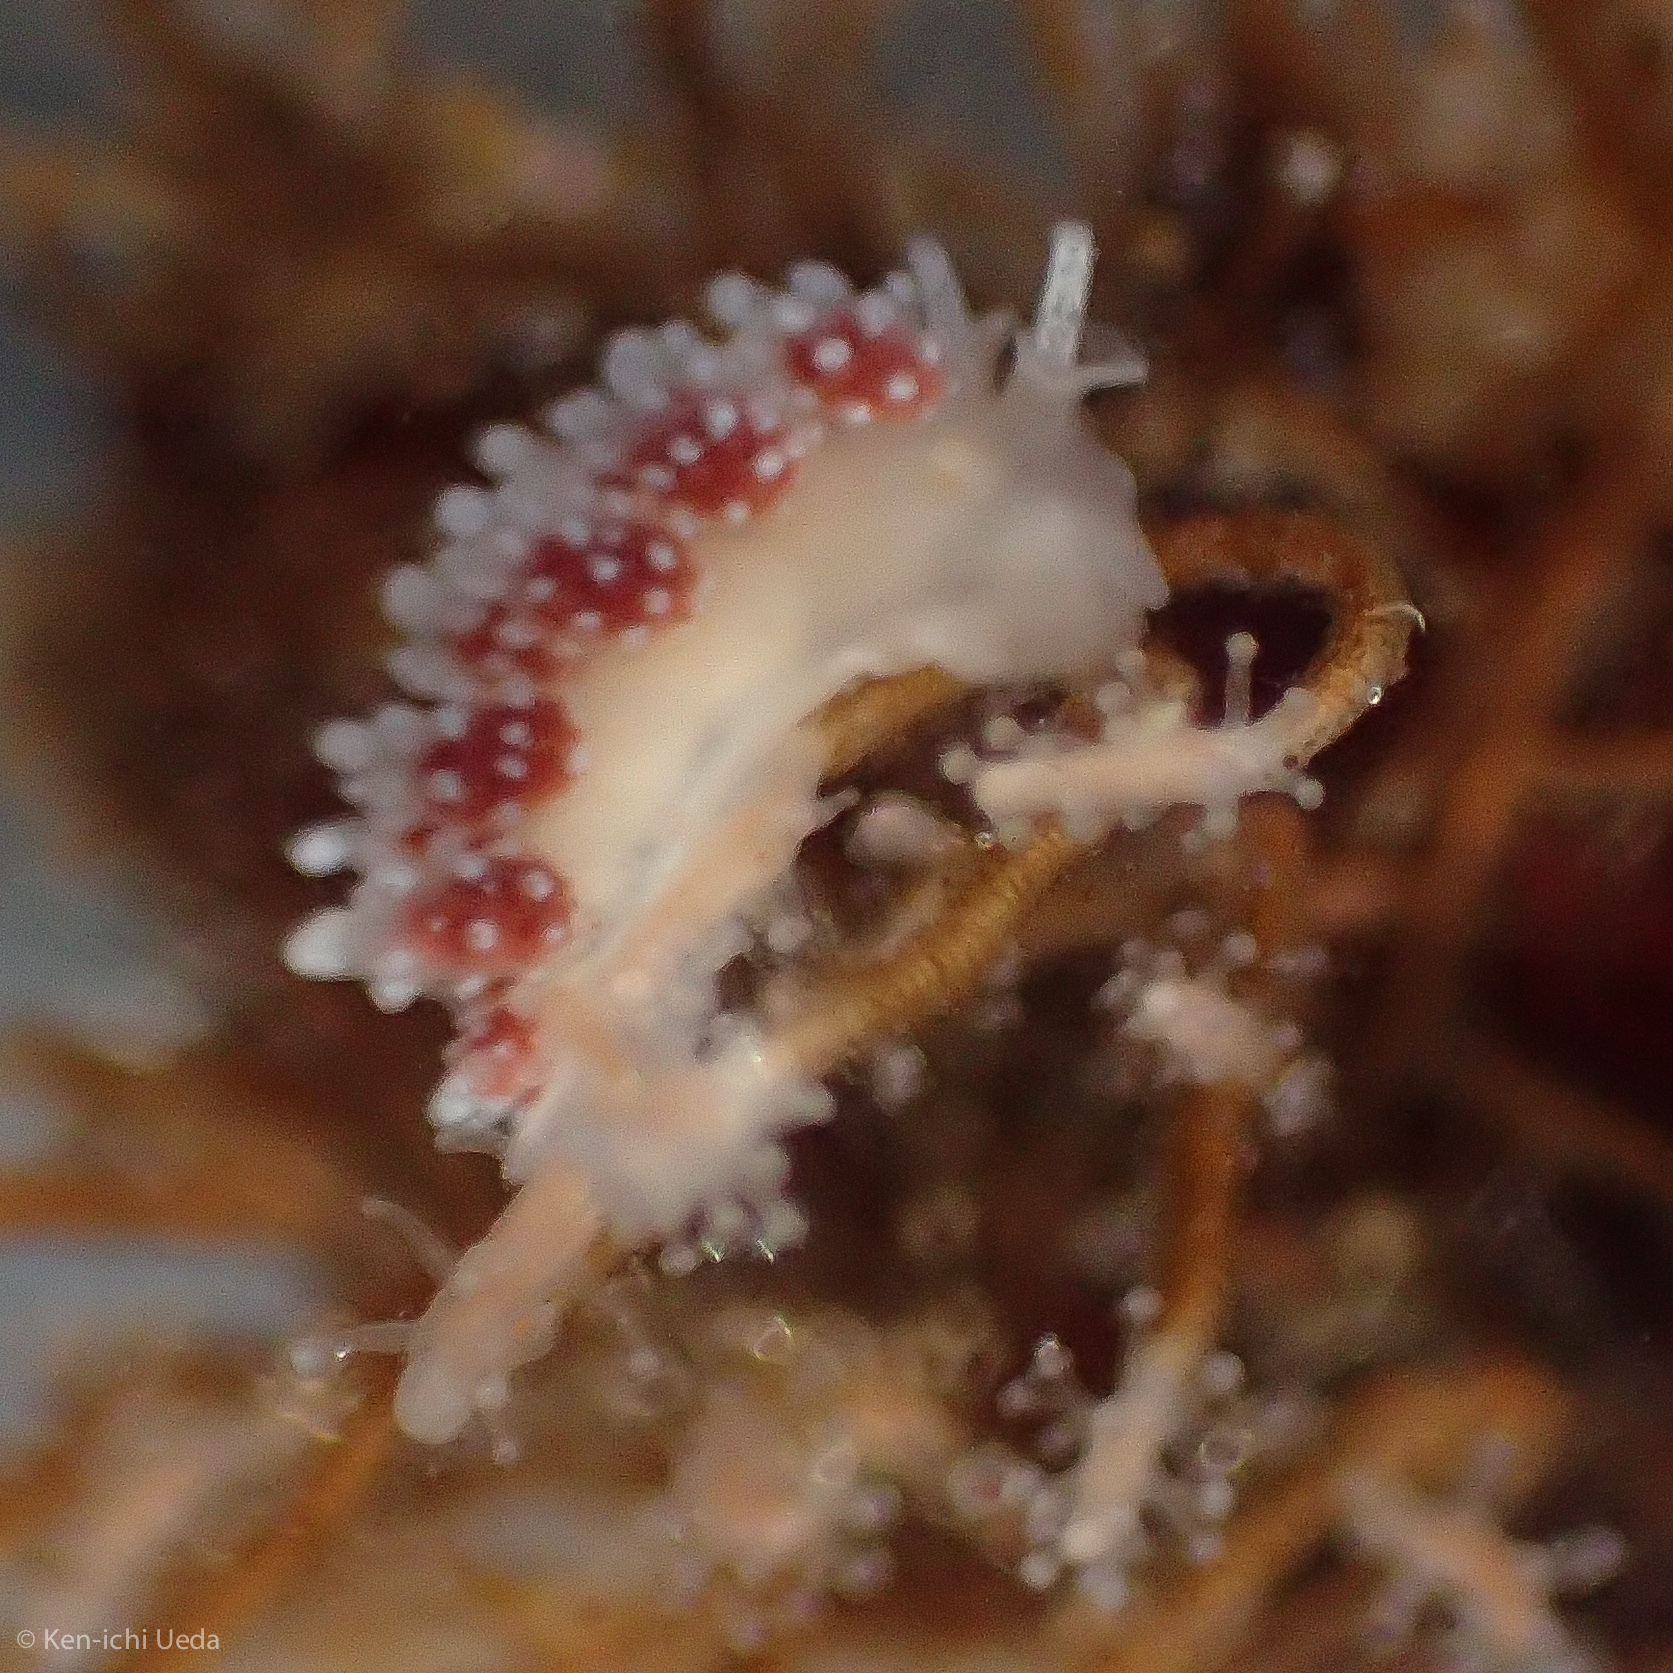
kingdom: Animalia
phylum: Mollusca
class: Gastropoda
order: Nudibranchia
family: Dotidae
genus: Doto
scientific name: Doto amyra
